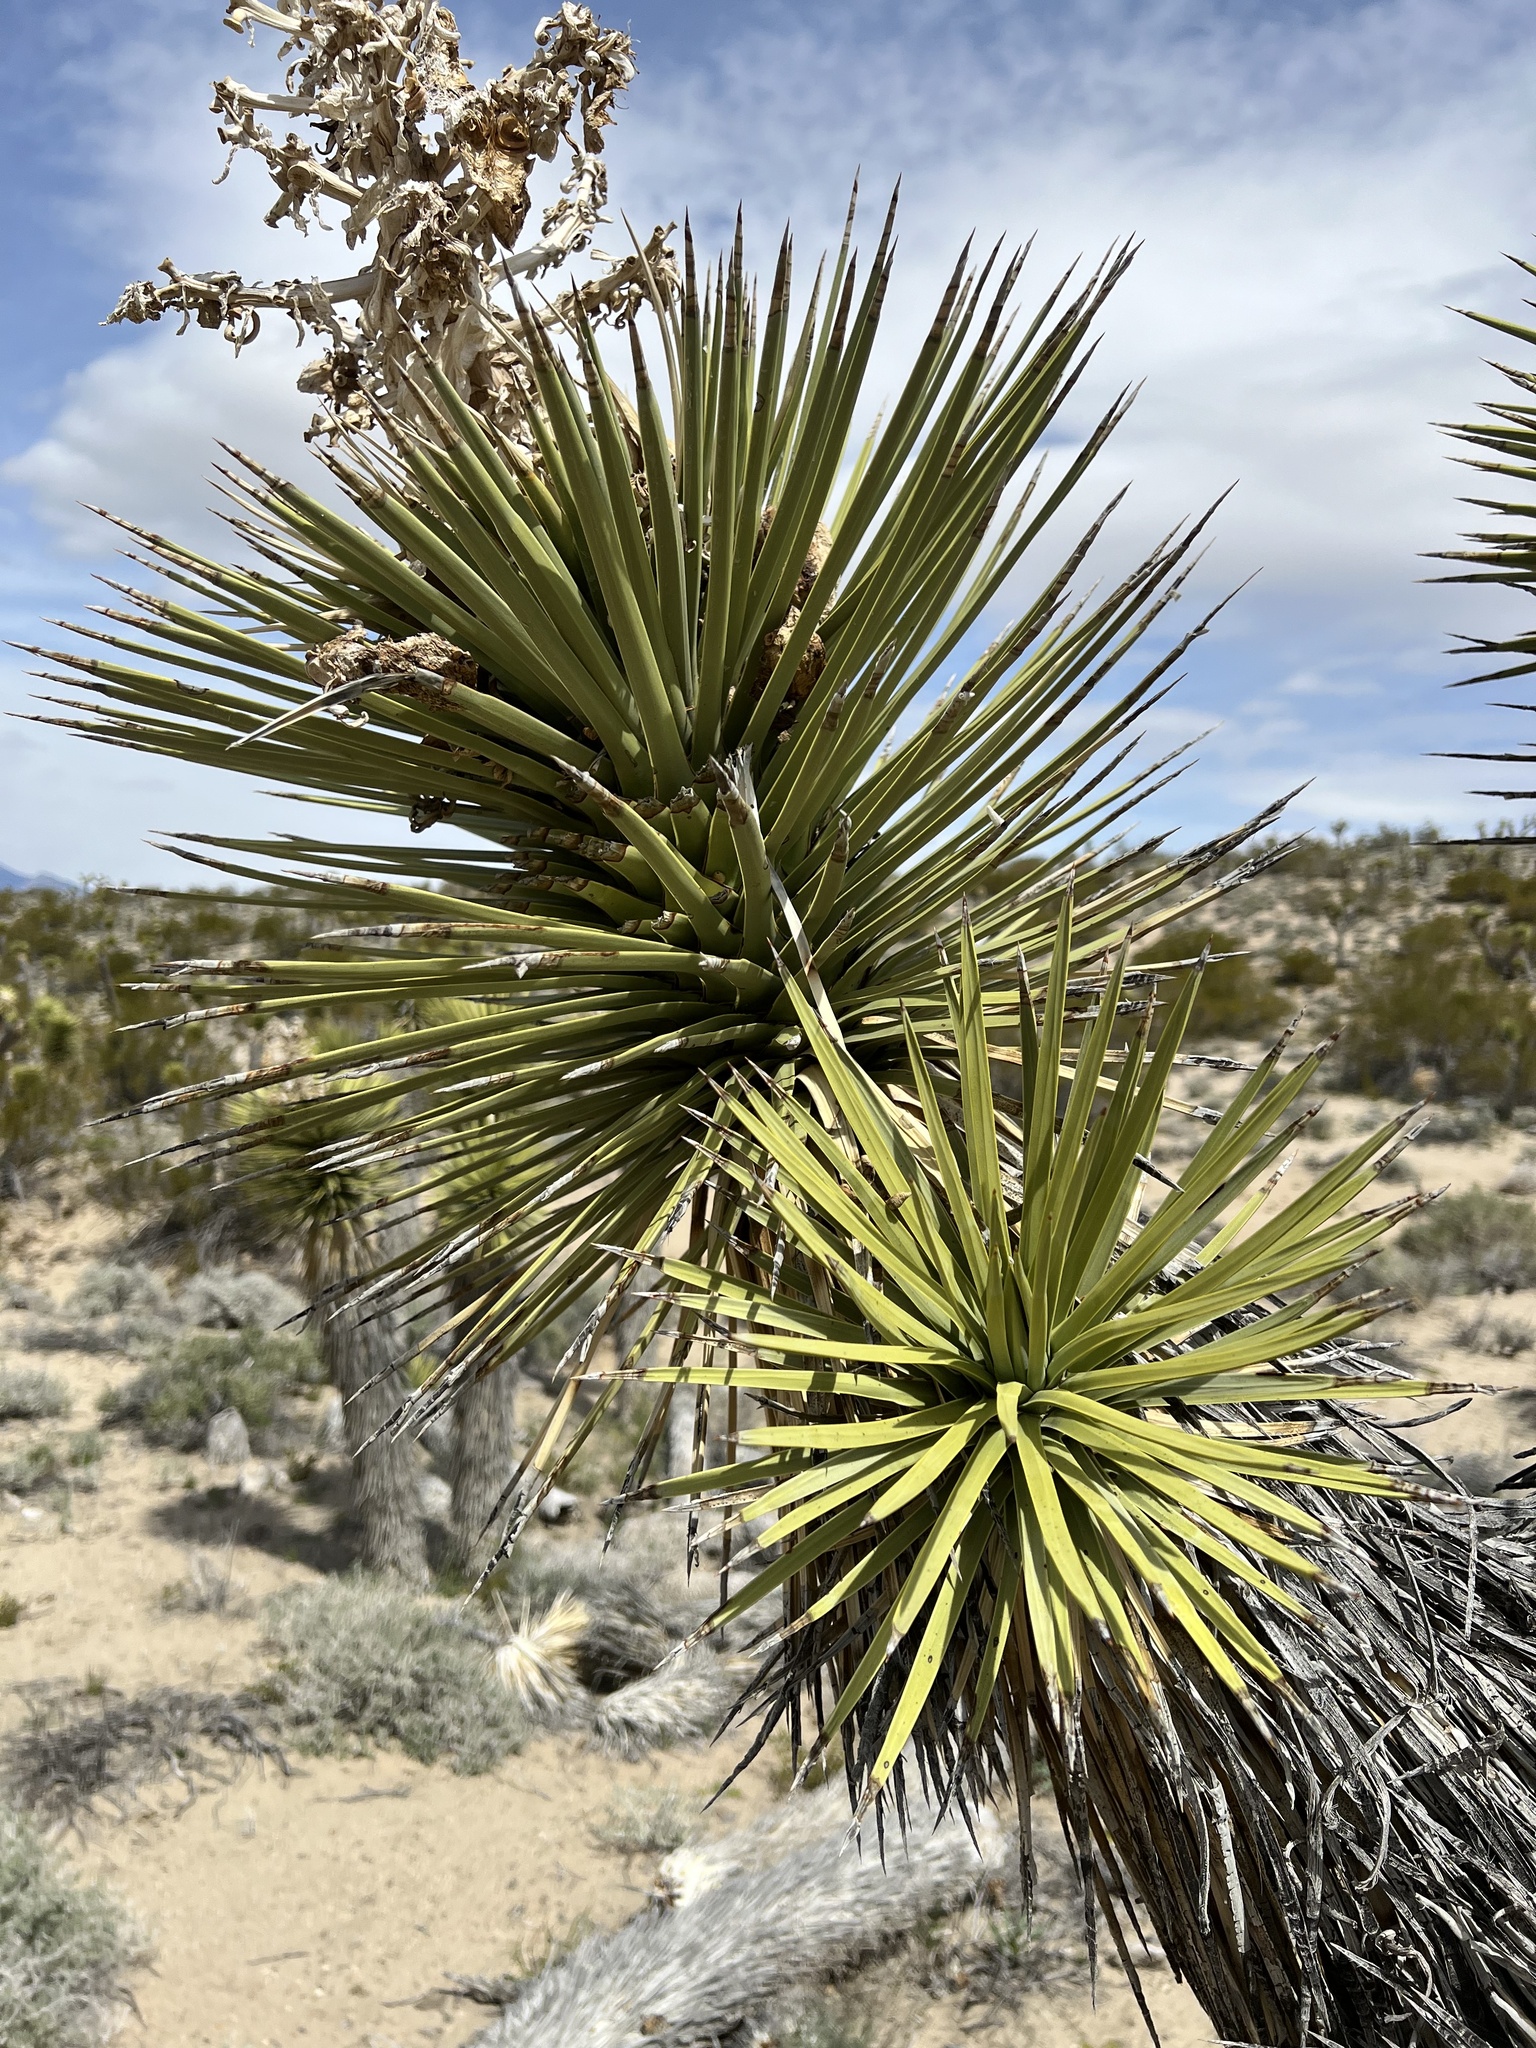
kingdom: Plantae
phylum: Tracheophyta
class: Liliopsida
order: Asparagales
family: Asparagaceae
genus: Yucca
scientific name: Yucca brevifolia
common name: Joshua tree
